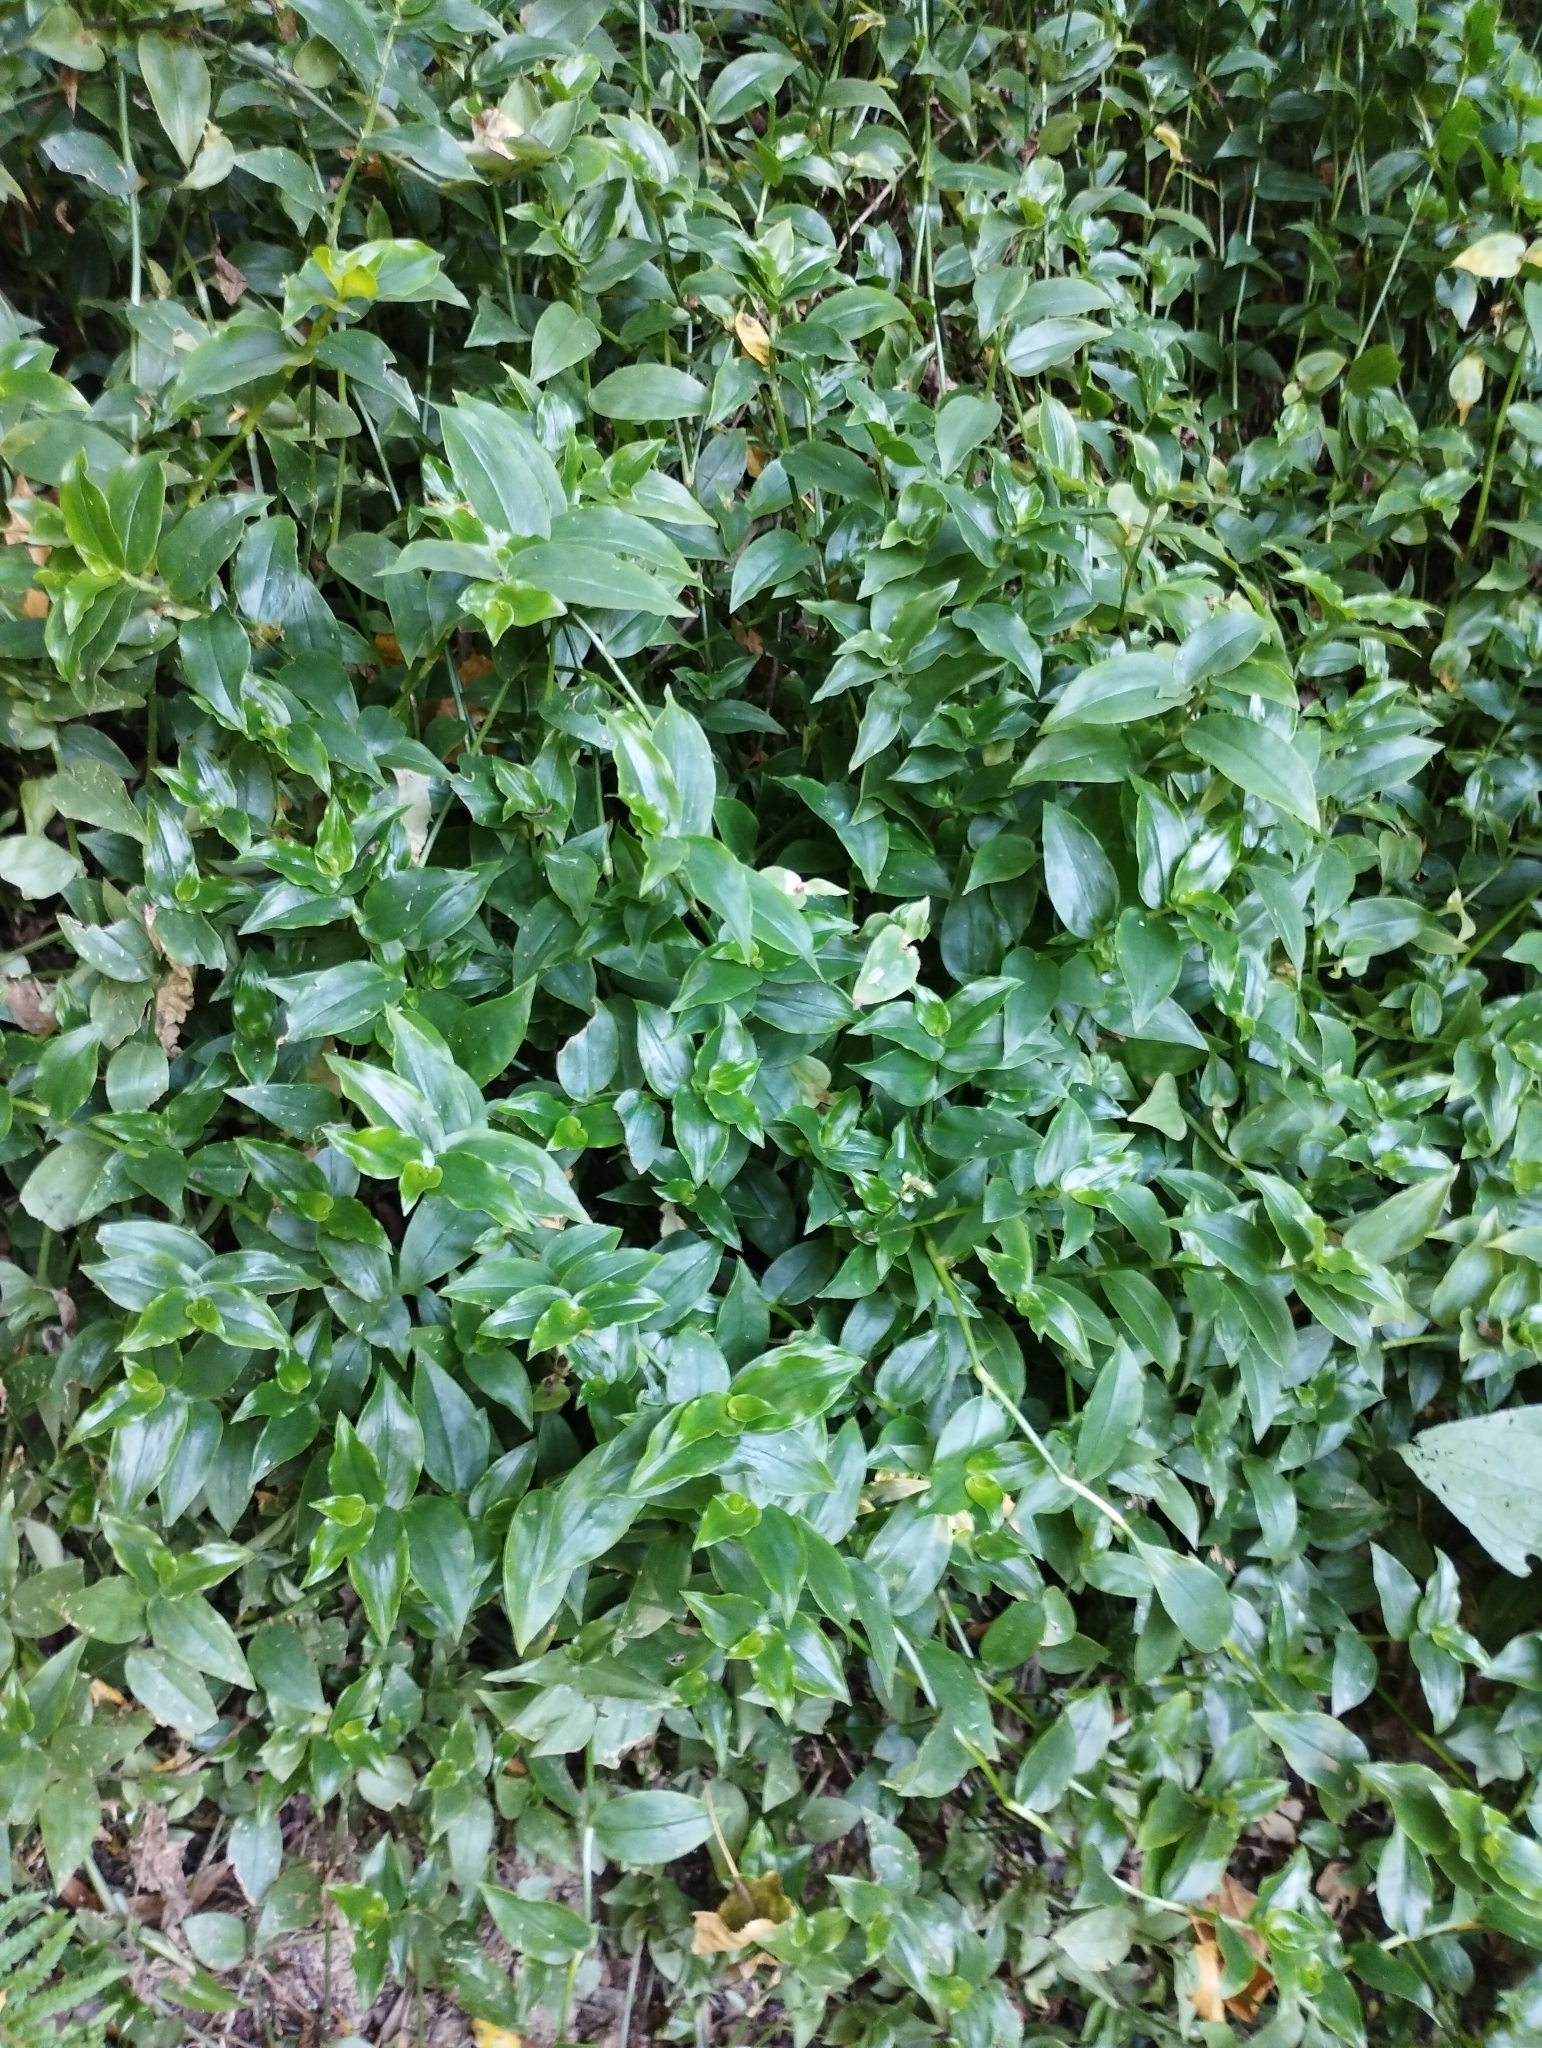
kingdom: Plantae
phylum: Tracheophyta
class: Liliopsida
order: Commelinales
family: Commelinaceae
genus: Tradescantia
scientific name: Tradescantia fluminensis
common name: Wandering-jew
